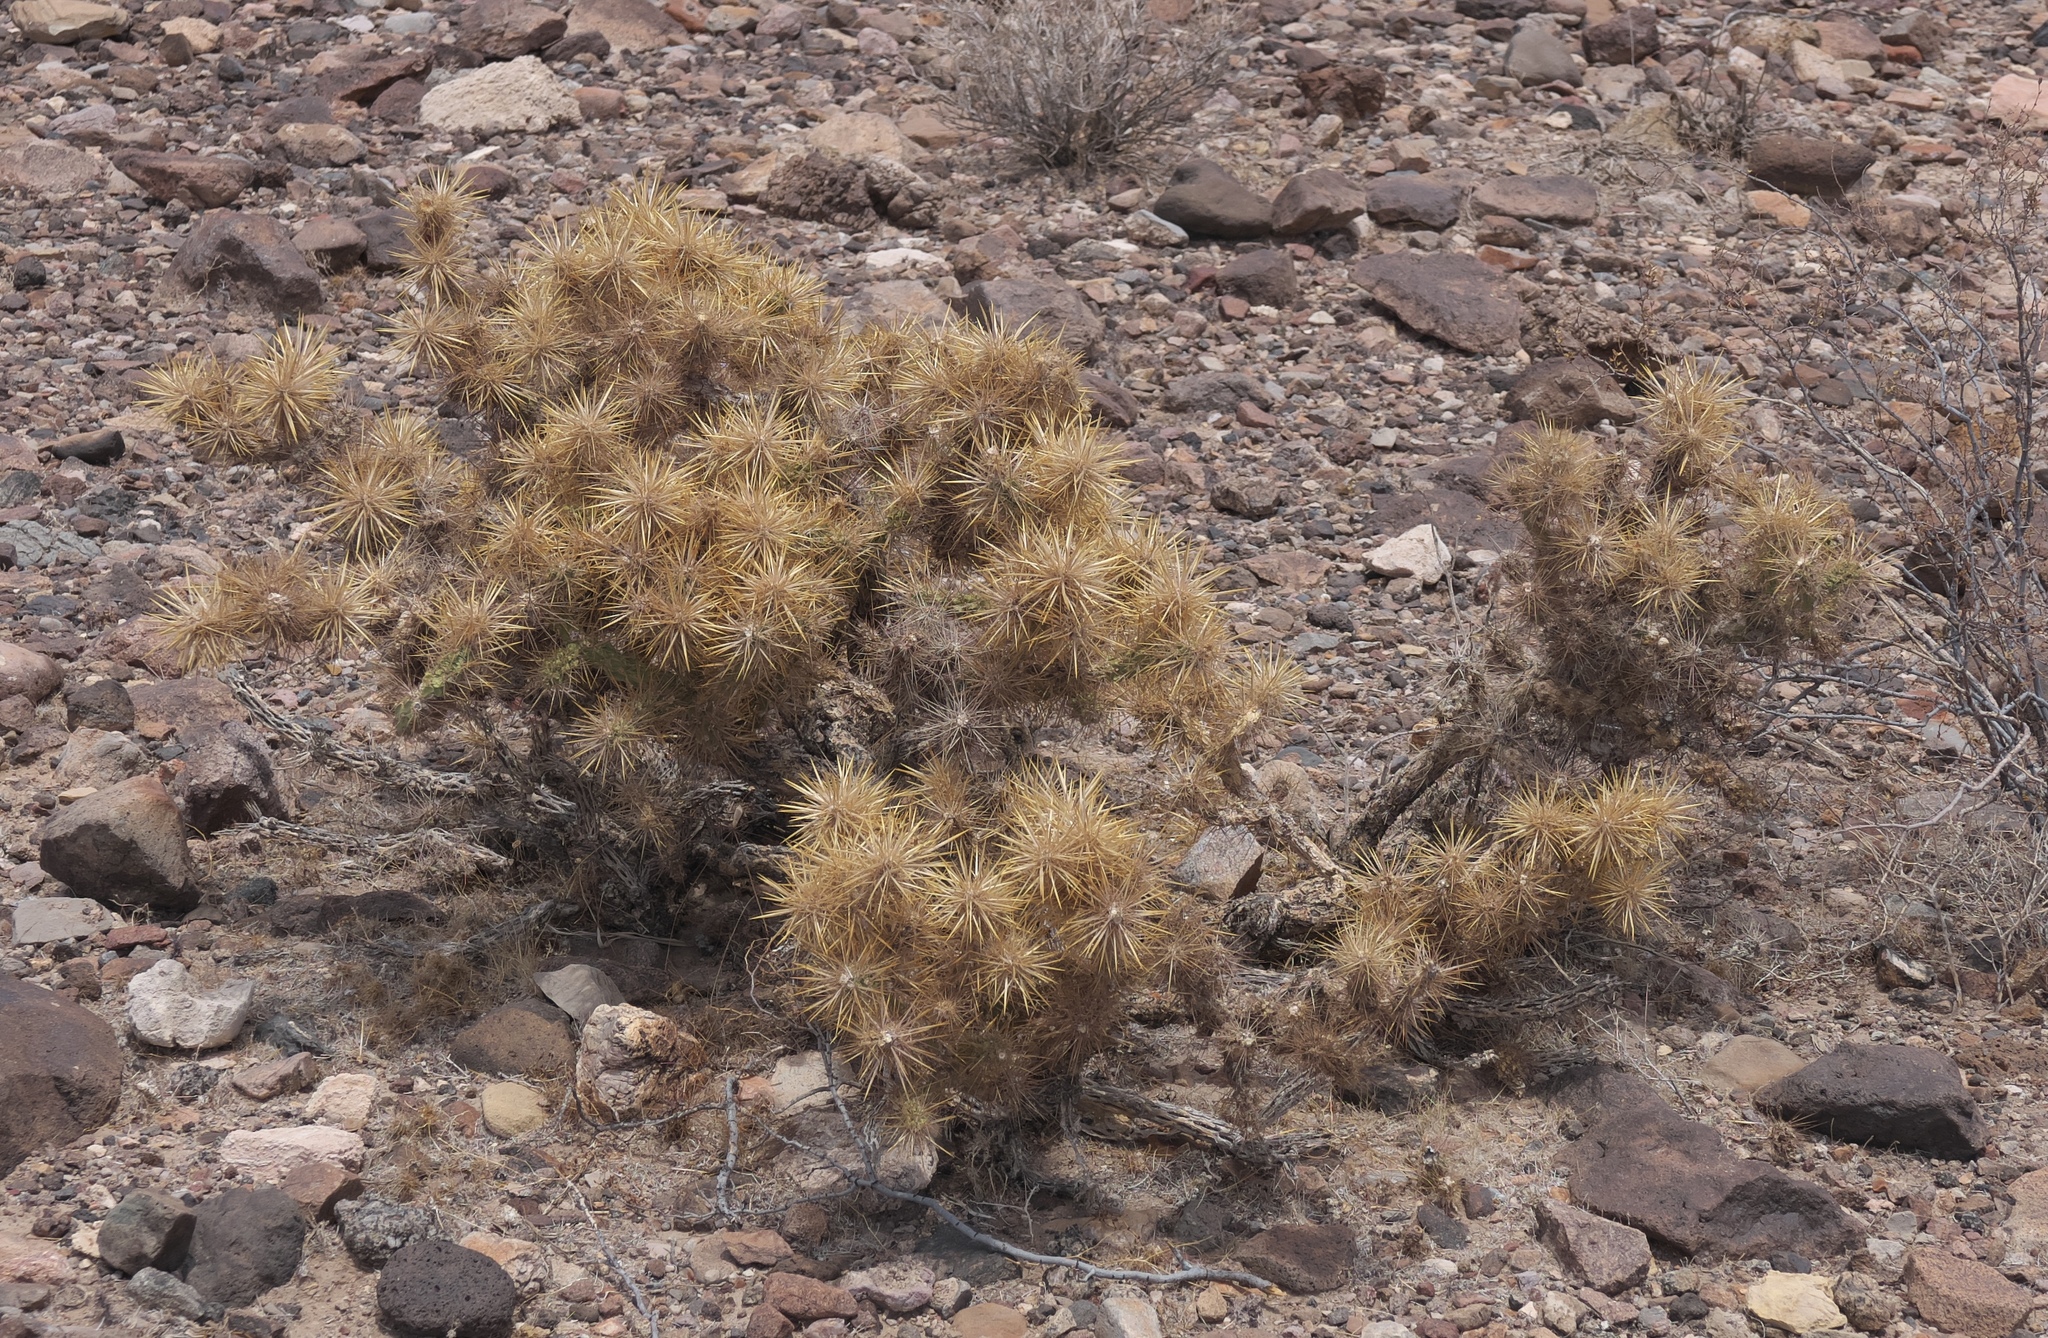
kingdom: Plantae
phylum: Tracheophyta
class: Magnoliopsida
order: Caryophyllales
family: Cactaceae
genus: Cylindropuntia
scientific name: Cylindropuntia echinocarpa
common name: Ground cholla
